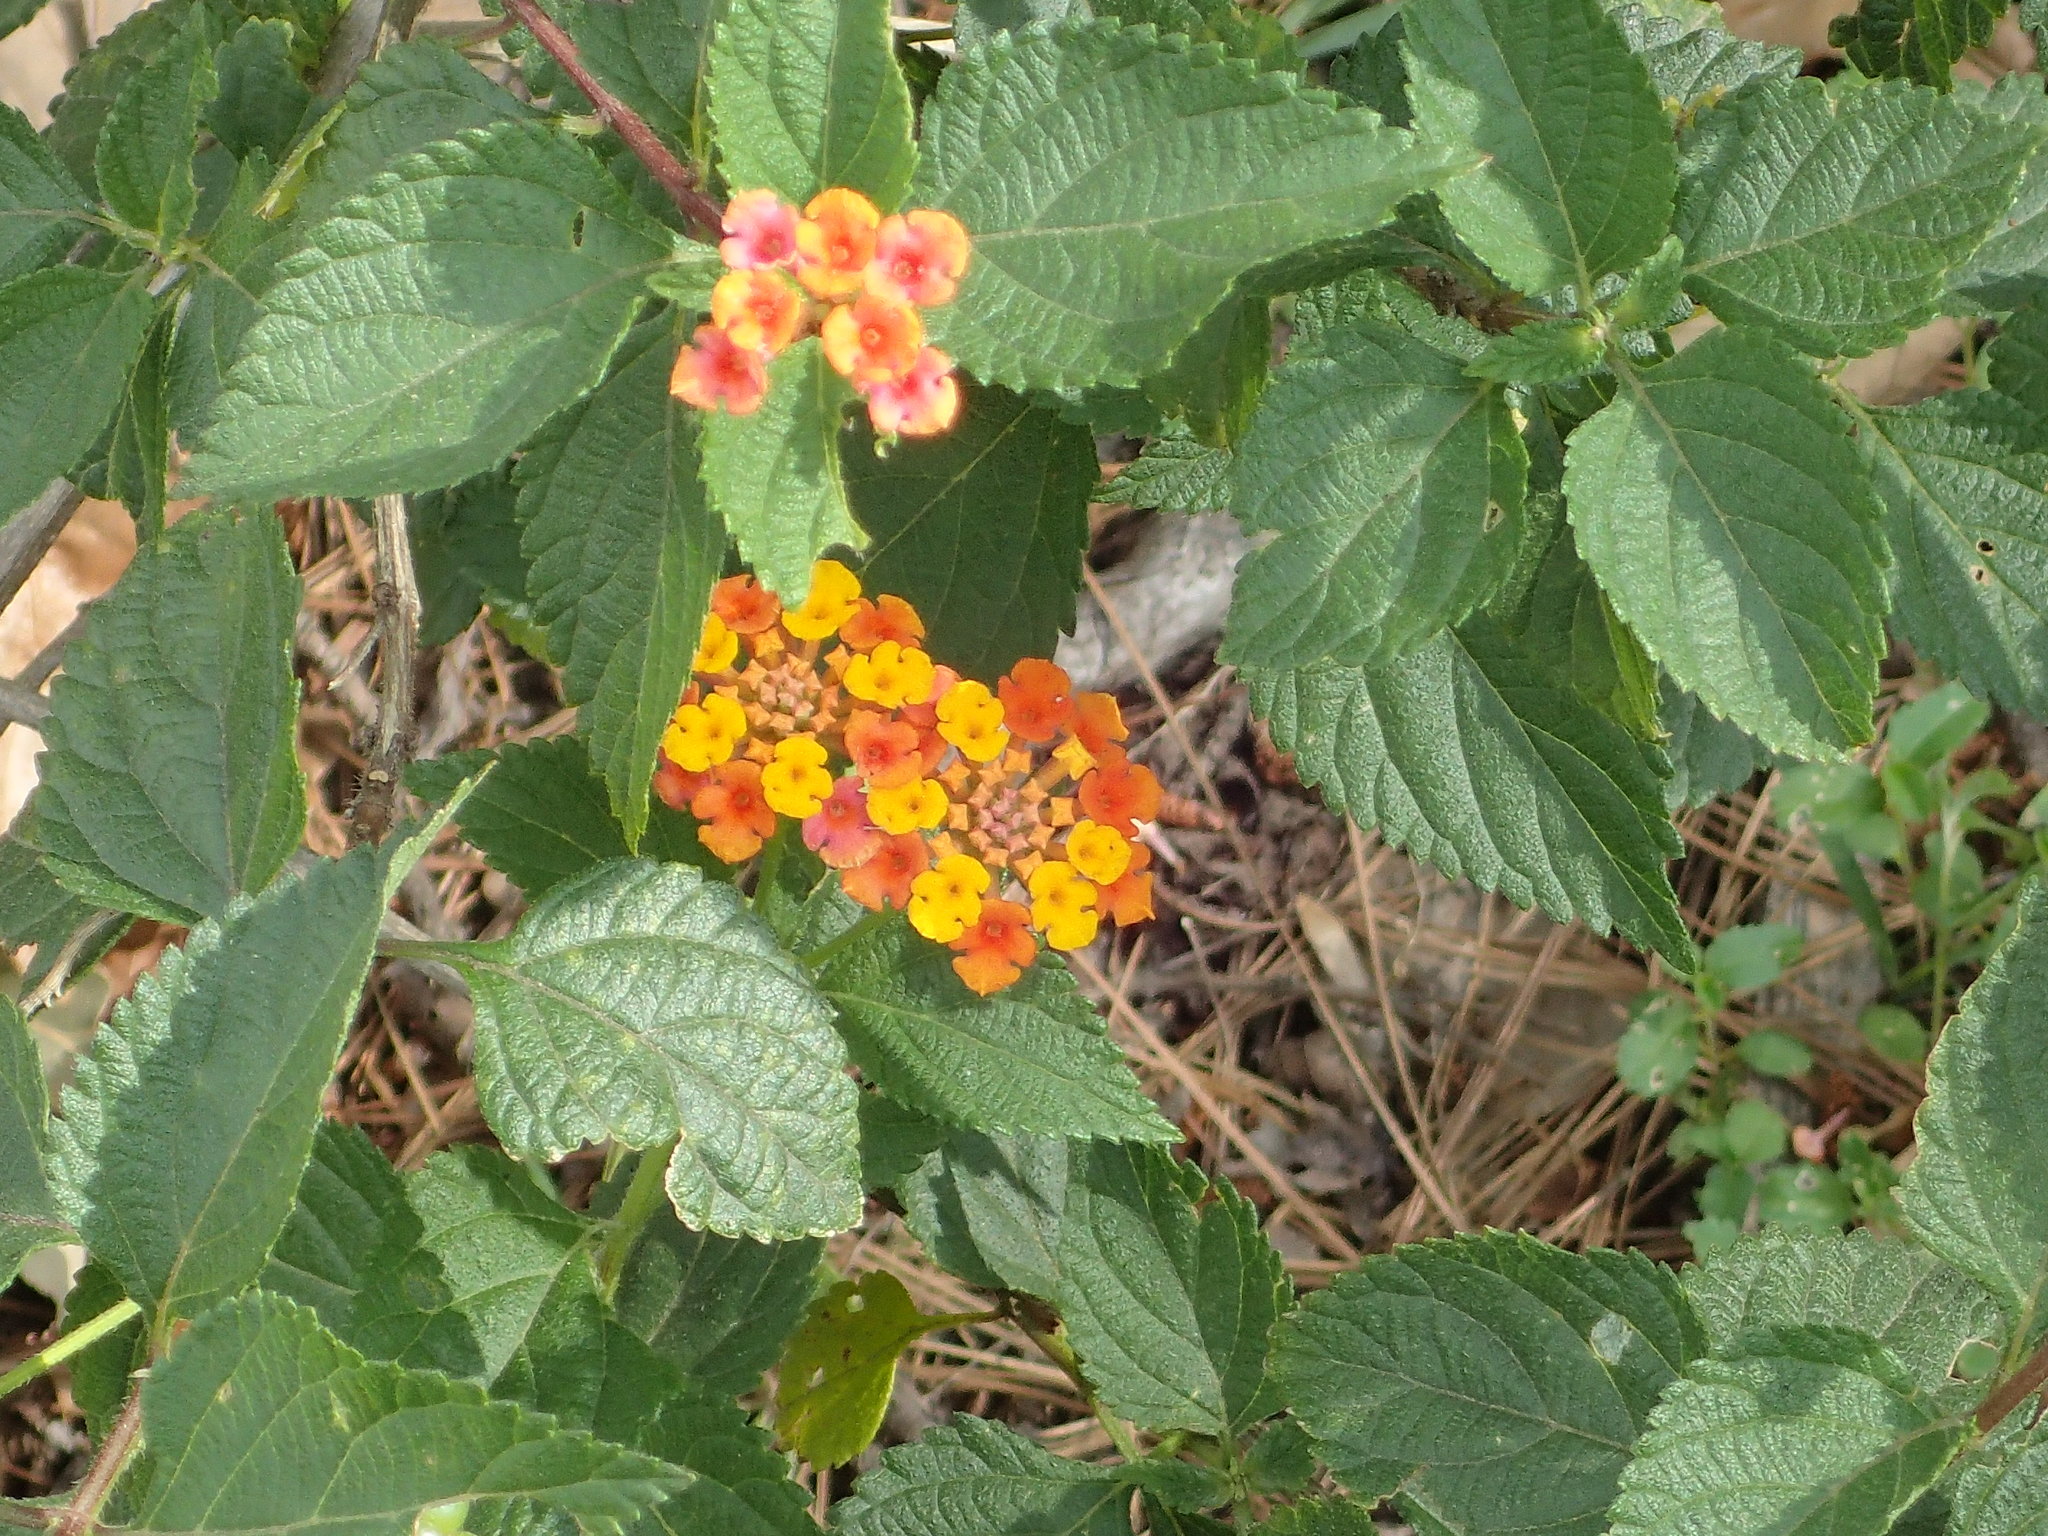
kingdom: Plantae
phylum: Tracheophyta
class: Magnoliopsida
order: Lamiales
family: Verbenaceae
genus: Lantana
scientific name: Lantana camara
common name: Lantana
